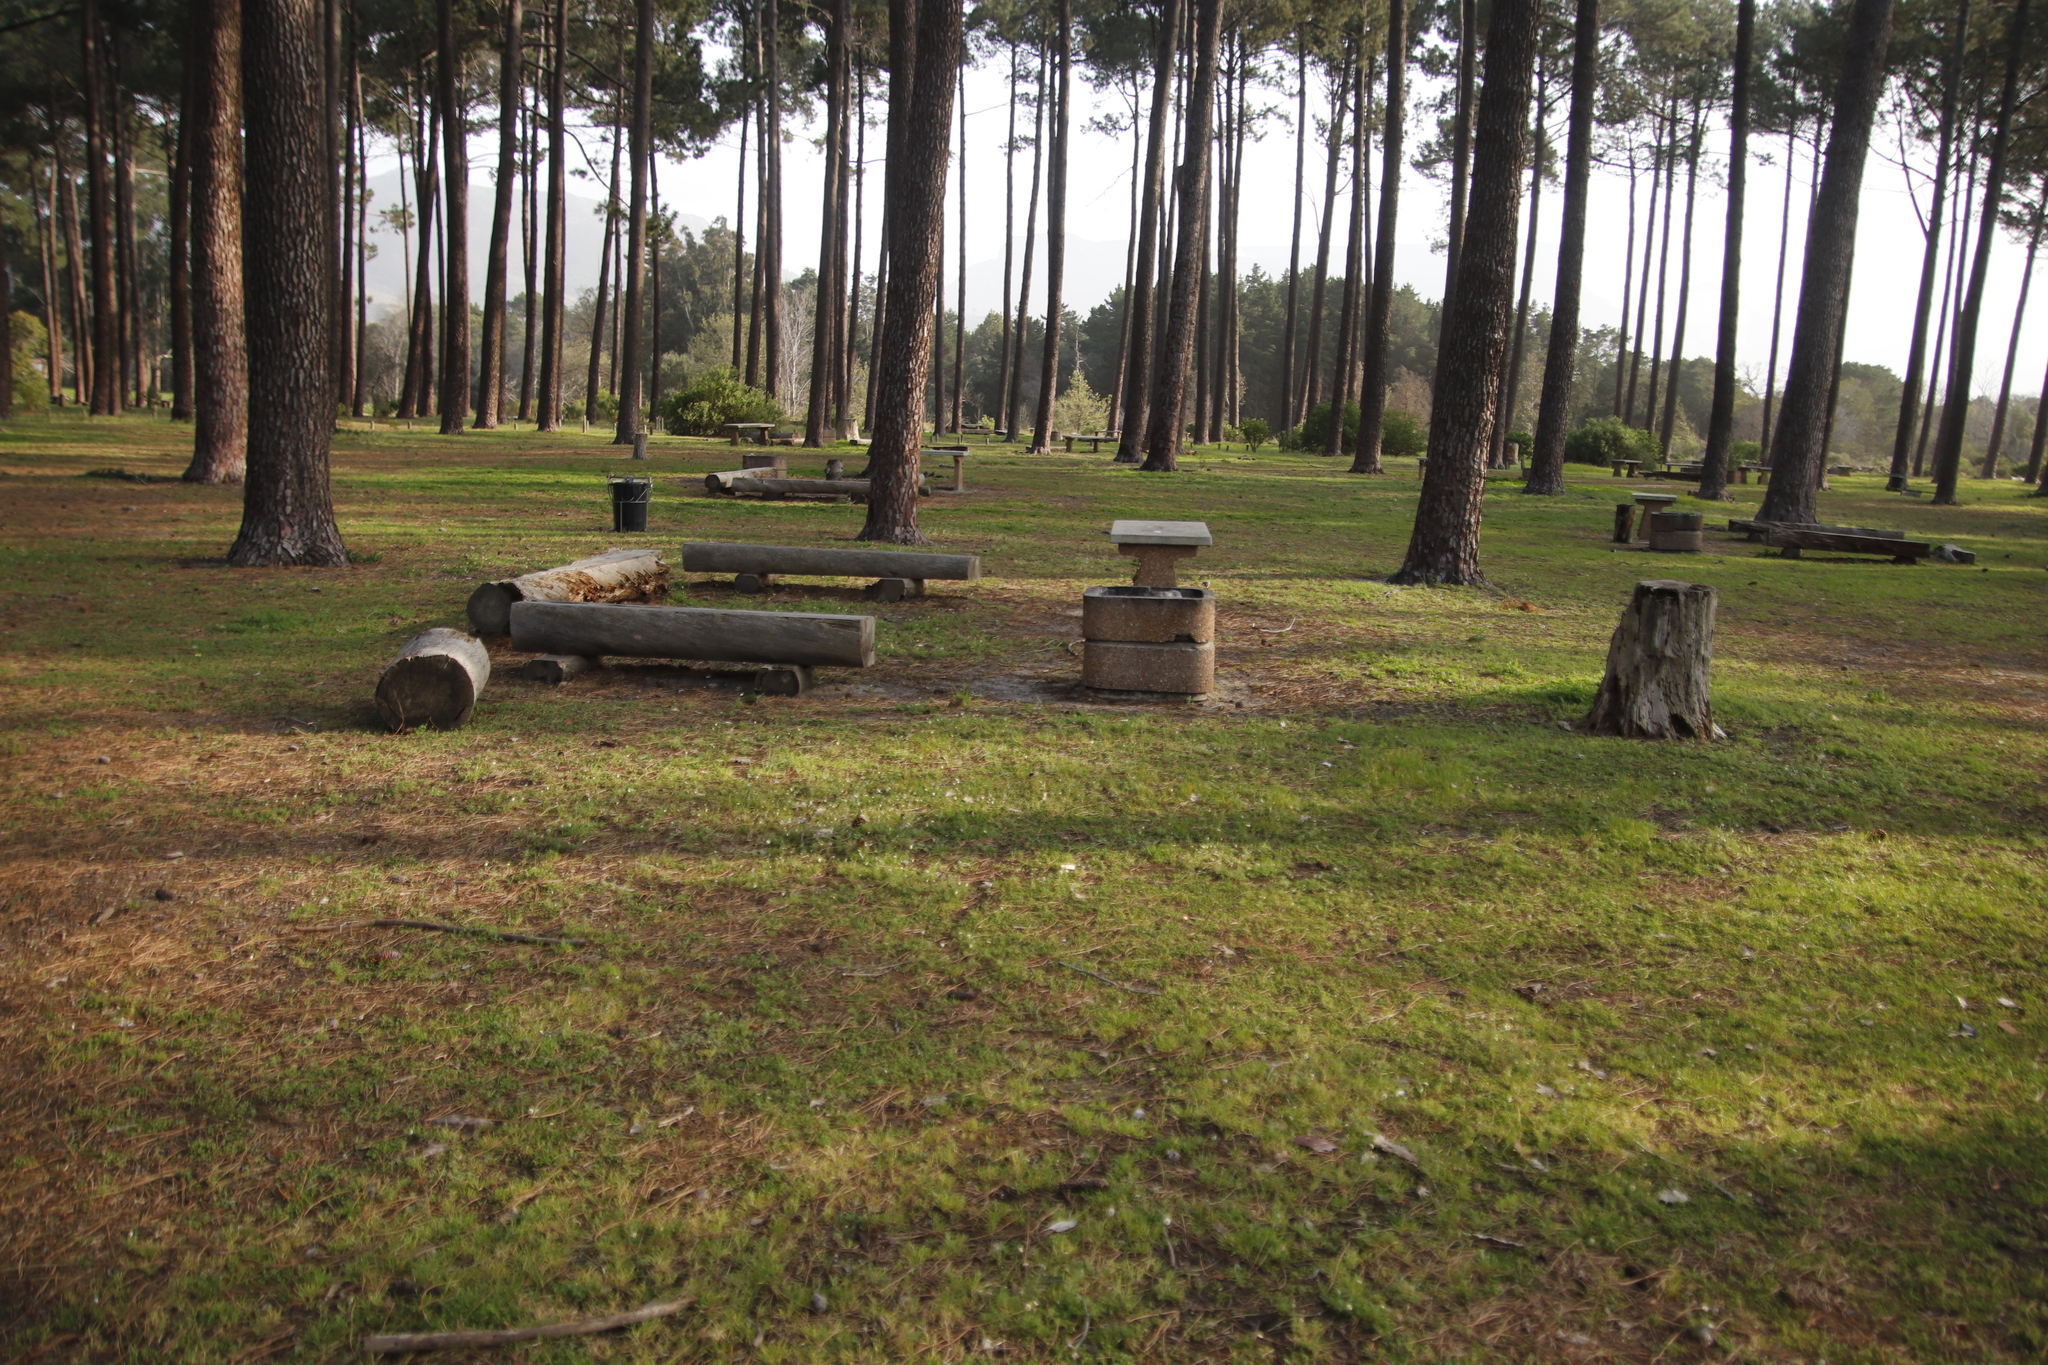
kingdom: Plantae
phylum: Tracheophyta
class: Magnoliopsida
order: Asterales
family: Asteraceae
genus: Cotula
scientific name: Cotula turbinata
